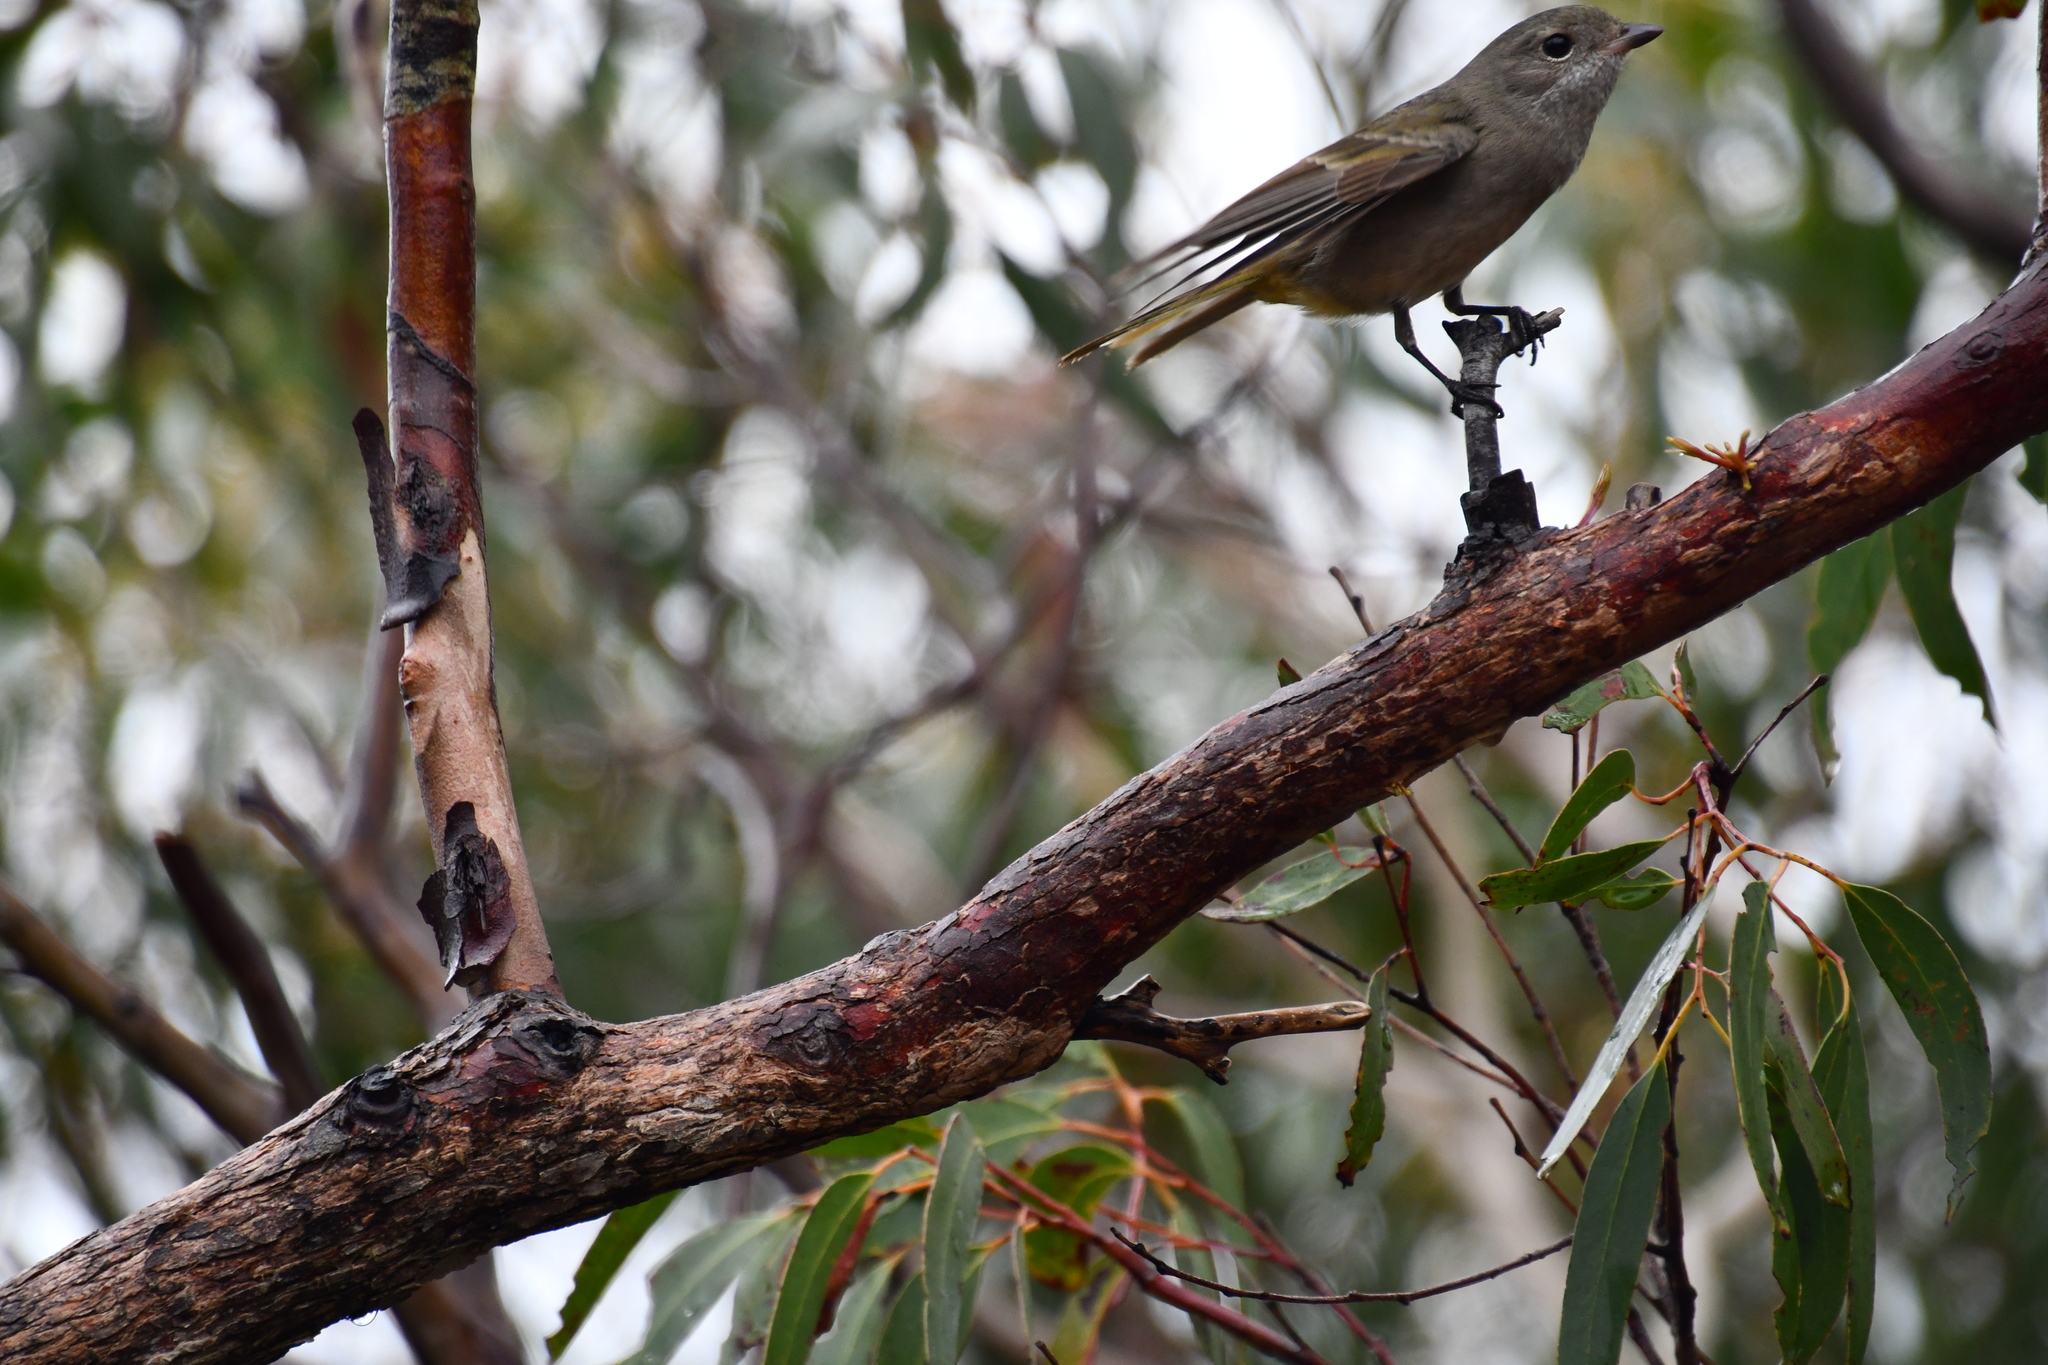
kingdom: Animalia
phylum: Chordata
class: Aves
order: Passeriformes
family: Pachycephalidae
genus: Pachycephala
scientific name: Pachycephala pectoralis
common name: Australian golden whistler
